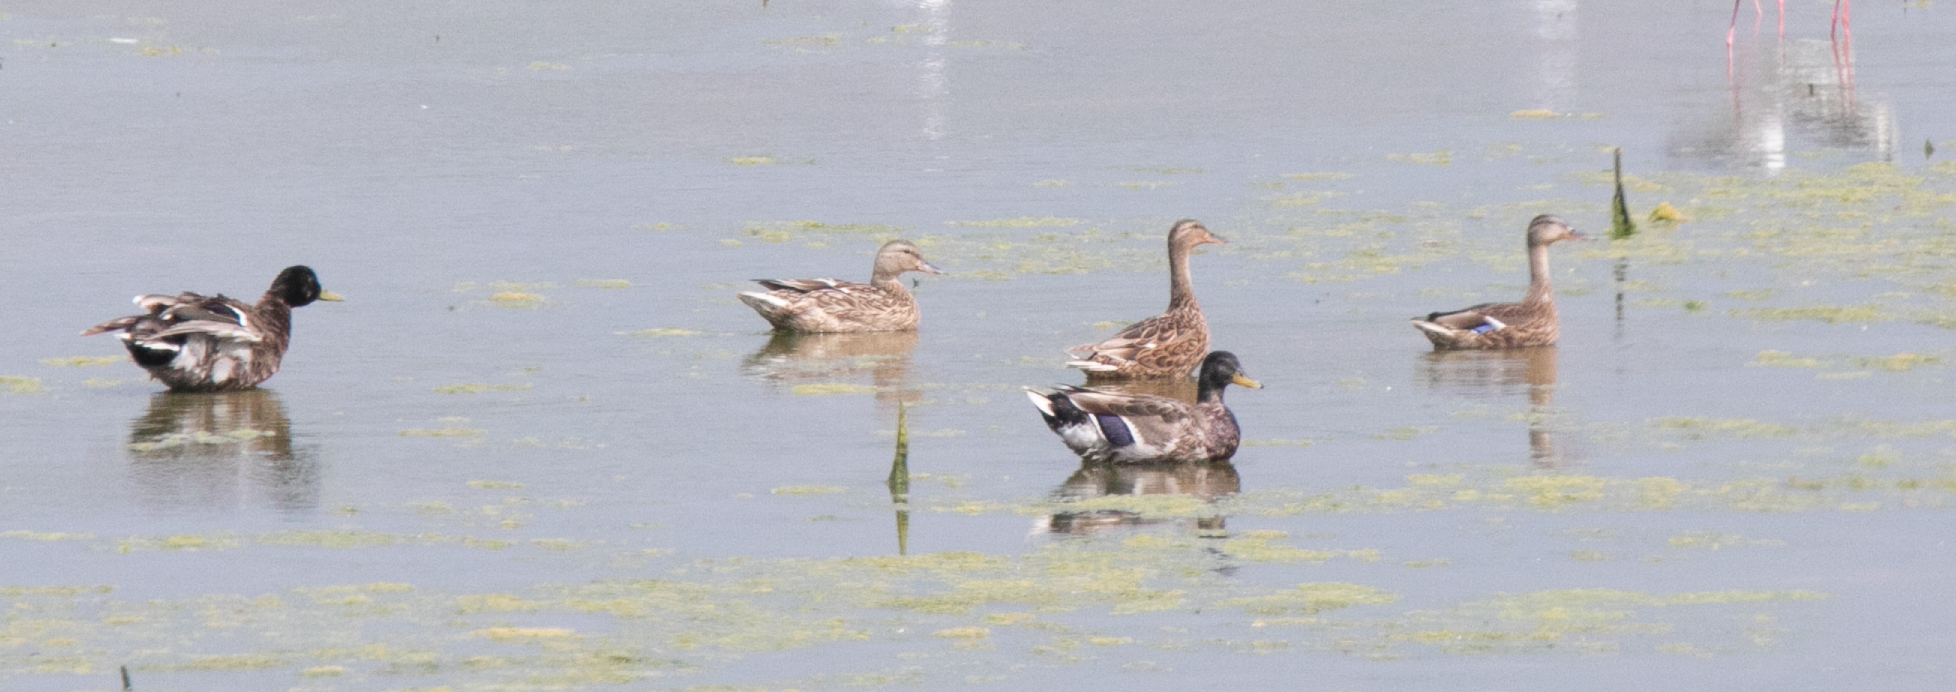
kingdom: Animalia
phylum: Chordata
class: Aves
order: Anseriformes
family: Anatidae
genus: Anas
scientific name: Anas platyrhynchos
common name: Mallard
